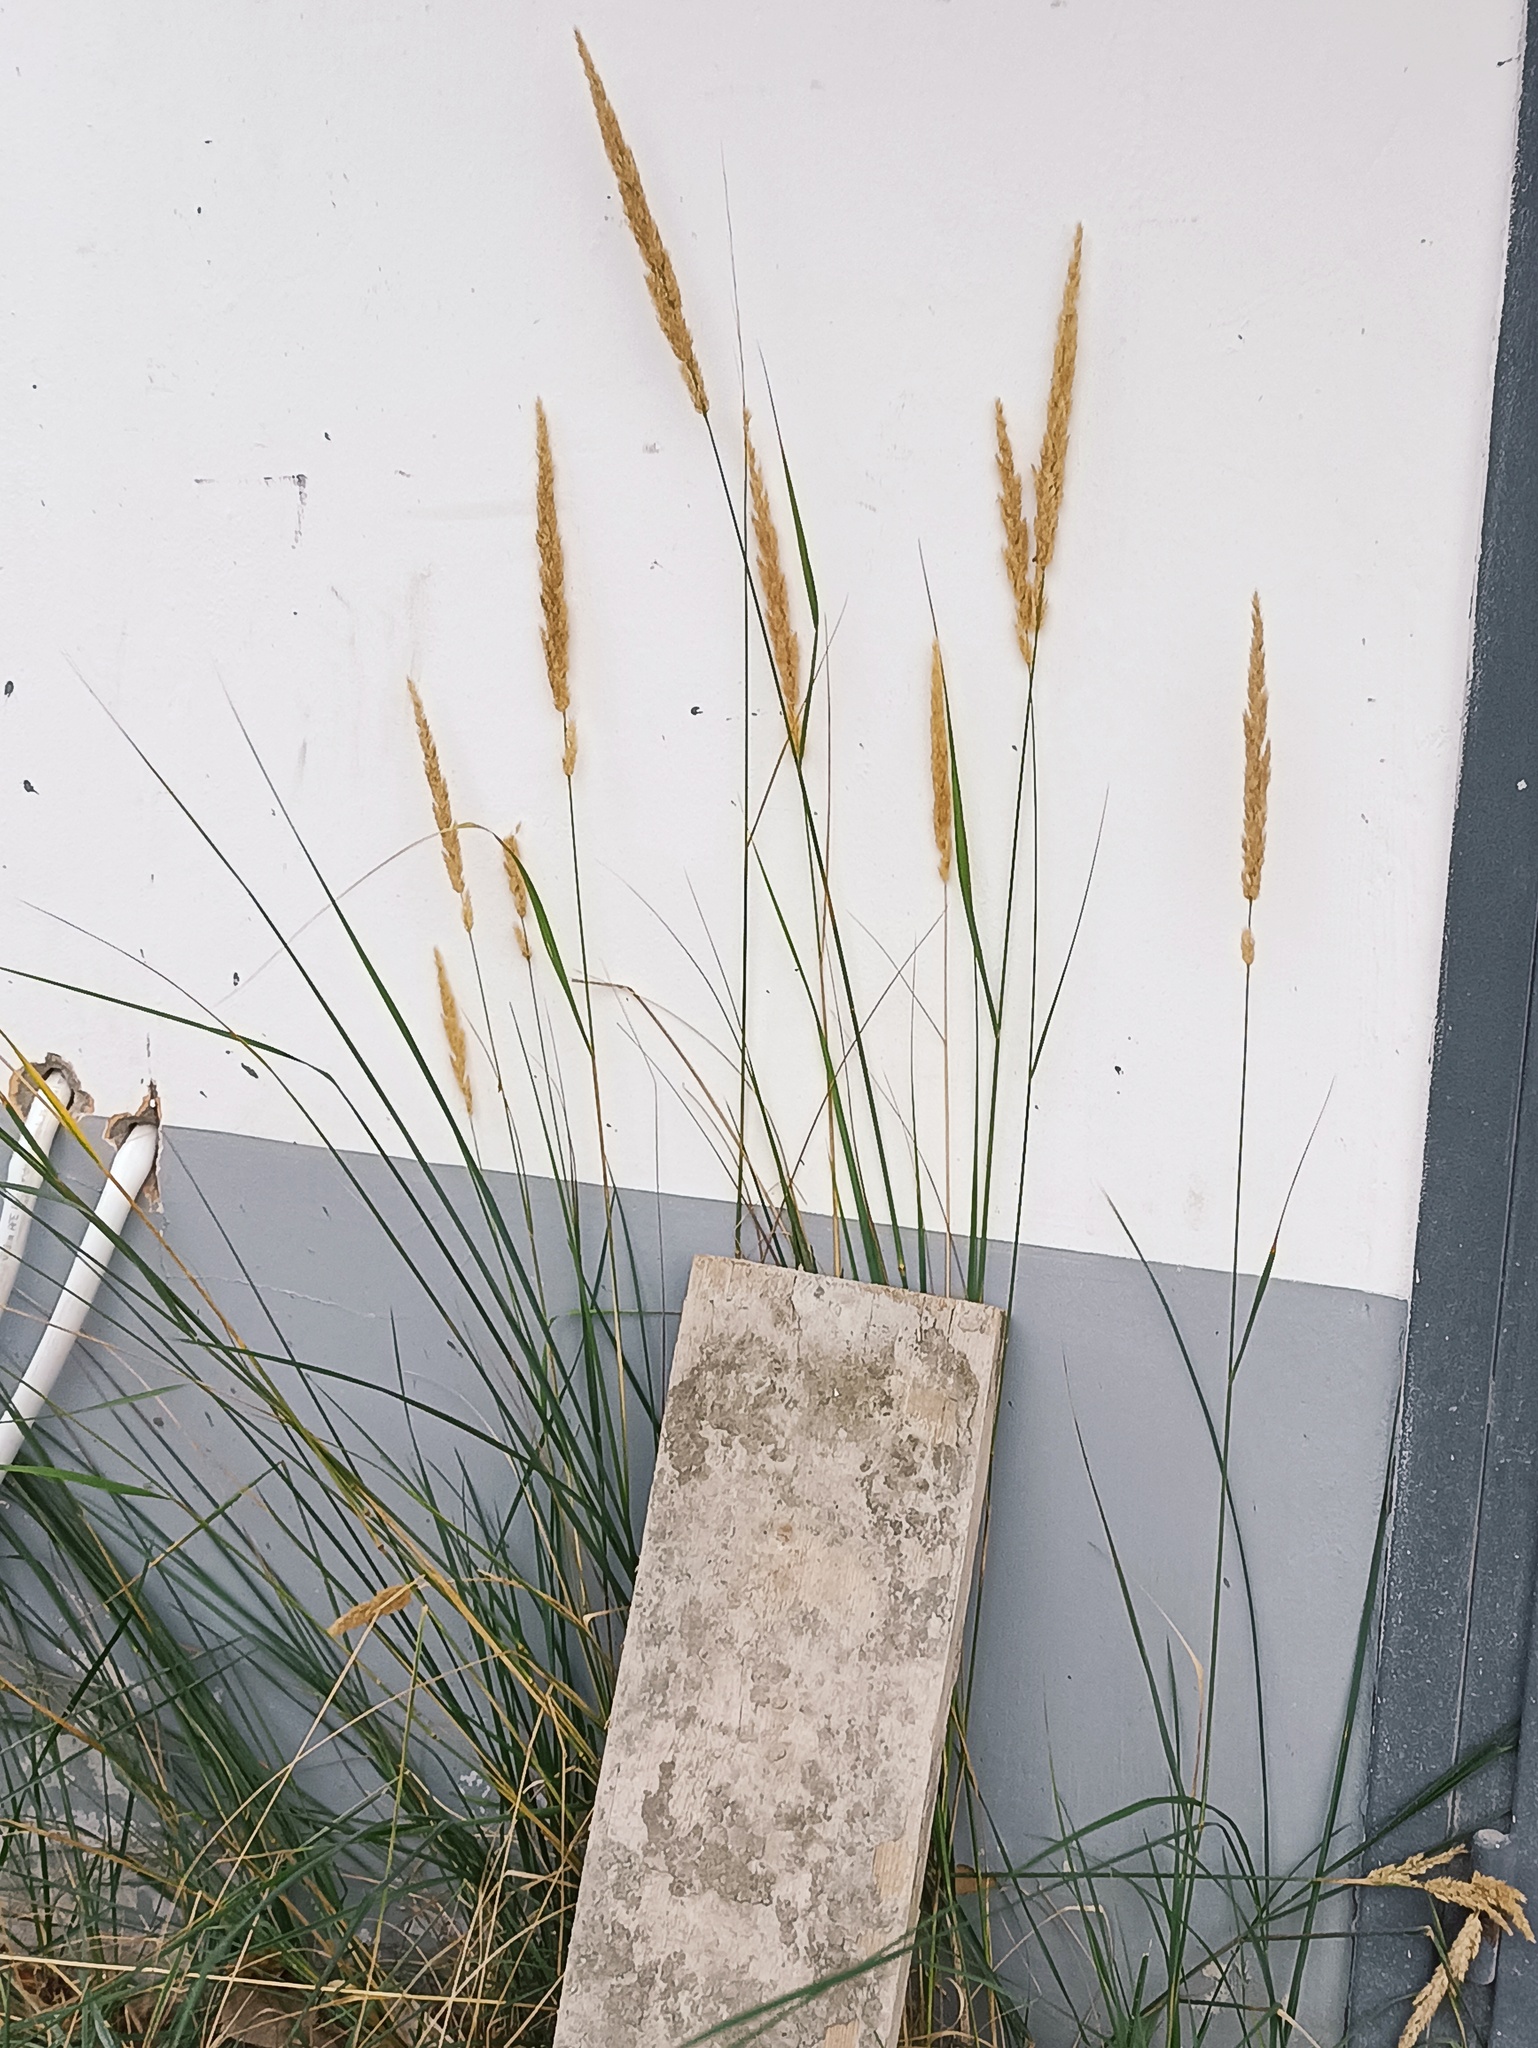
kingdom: Plantae
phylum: Tracheophyta
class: Liliopsida
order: Poales
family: Poaceae
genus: Calamagrostis
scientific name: Calamagrostis epigejos
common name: Wood small-reed
